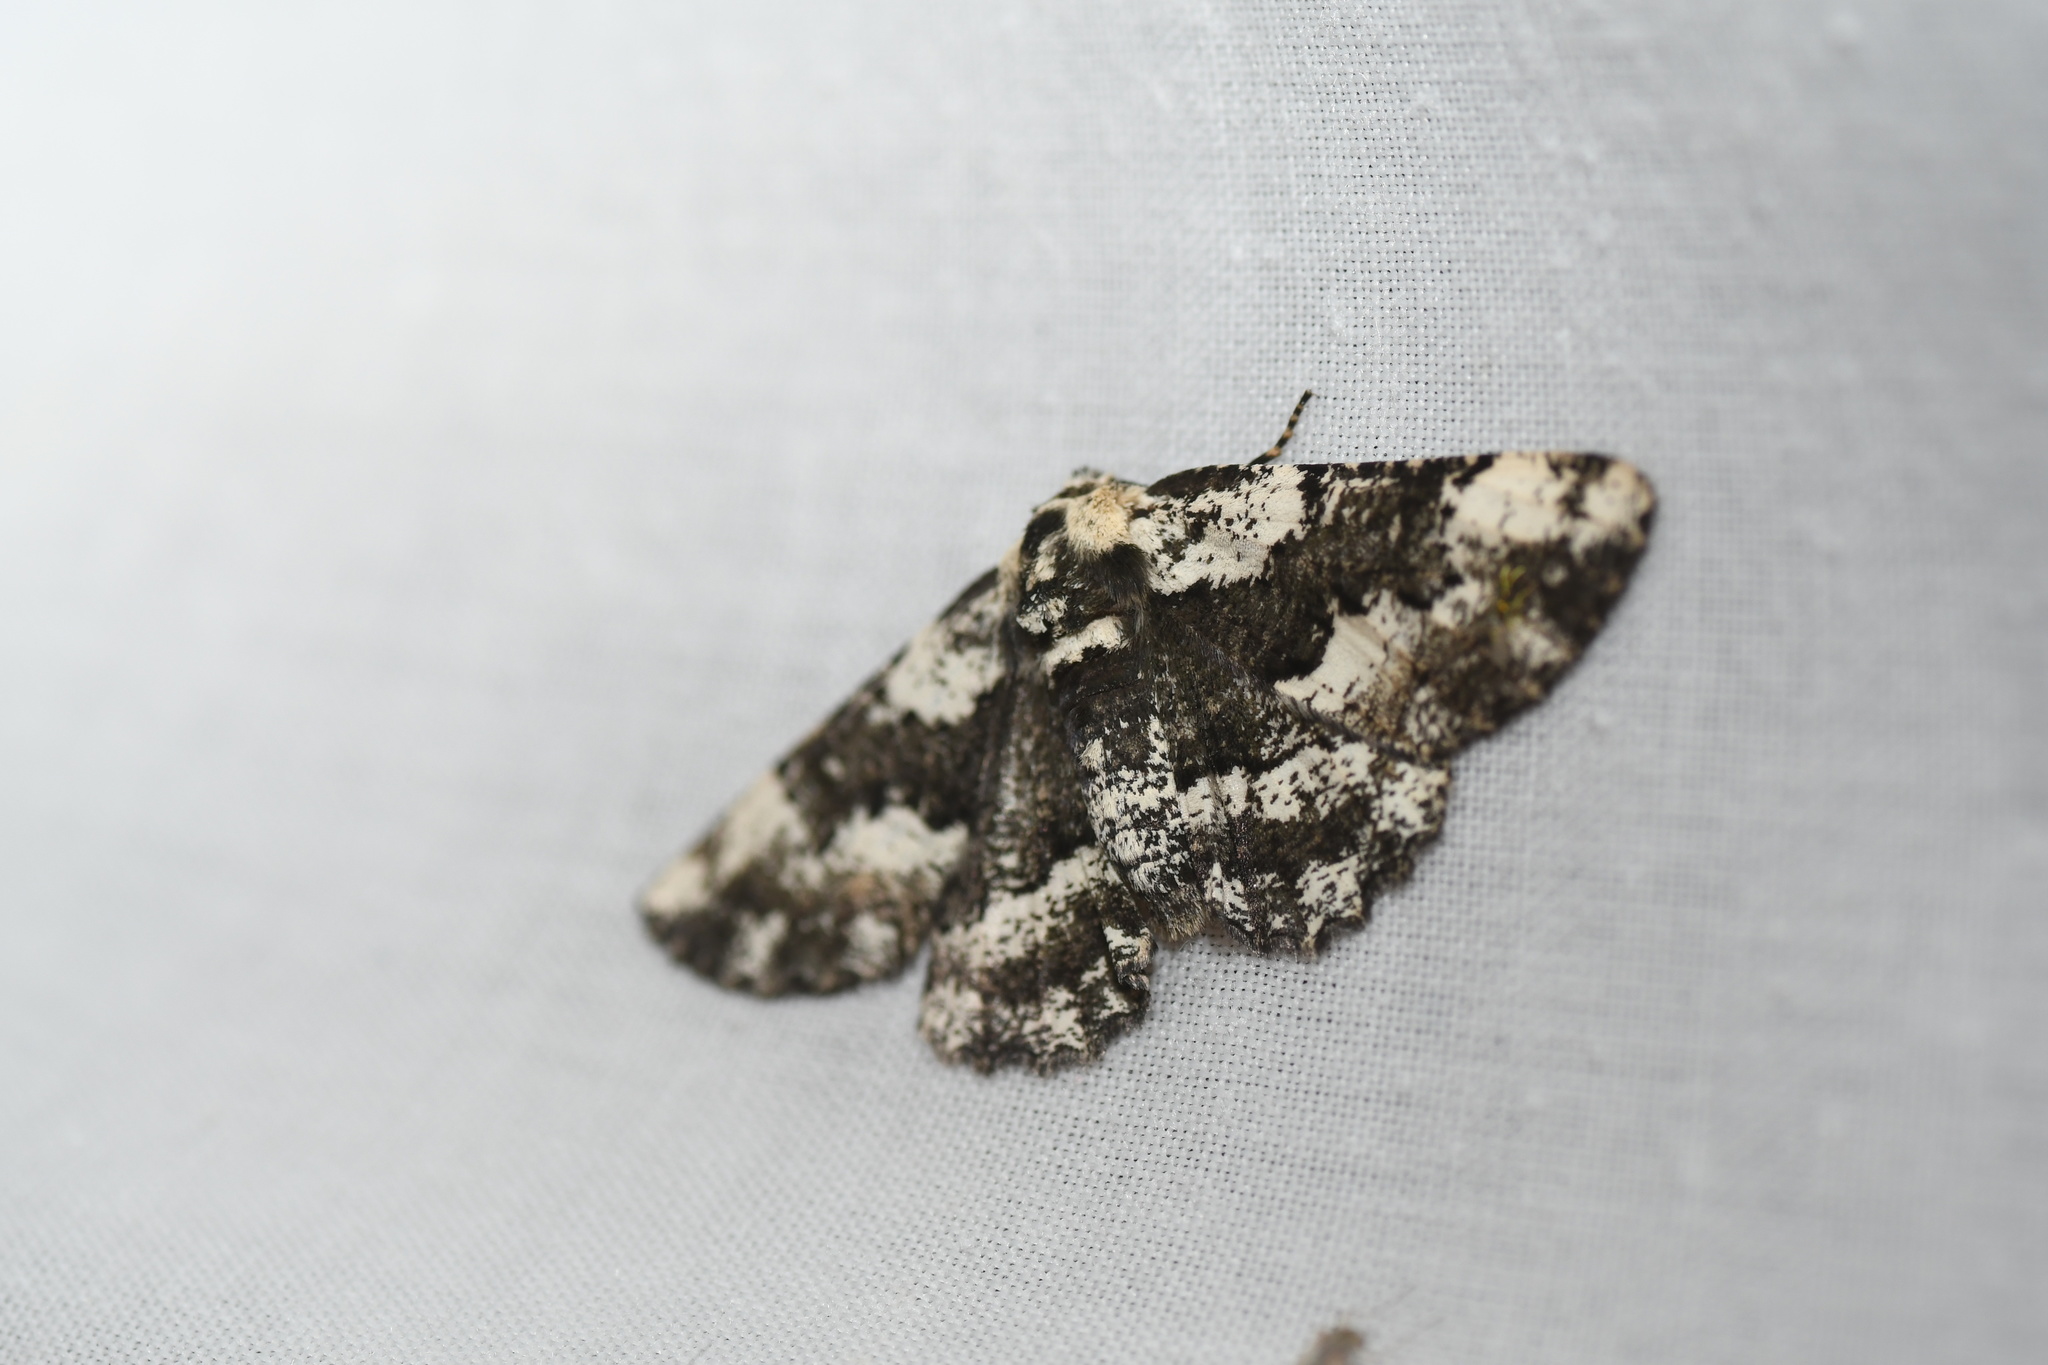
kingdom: Animalia
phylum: Arthropoda
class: Insecta
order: Lepidoptera
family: Geometridae
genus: Phaeoura
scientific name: Phaeoura quernaria
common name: Oak beauty
